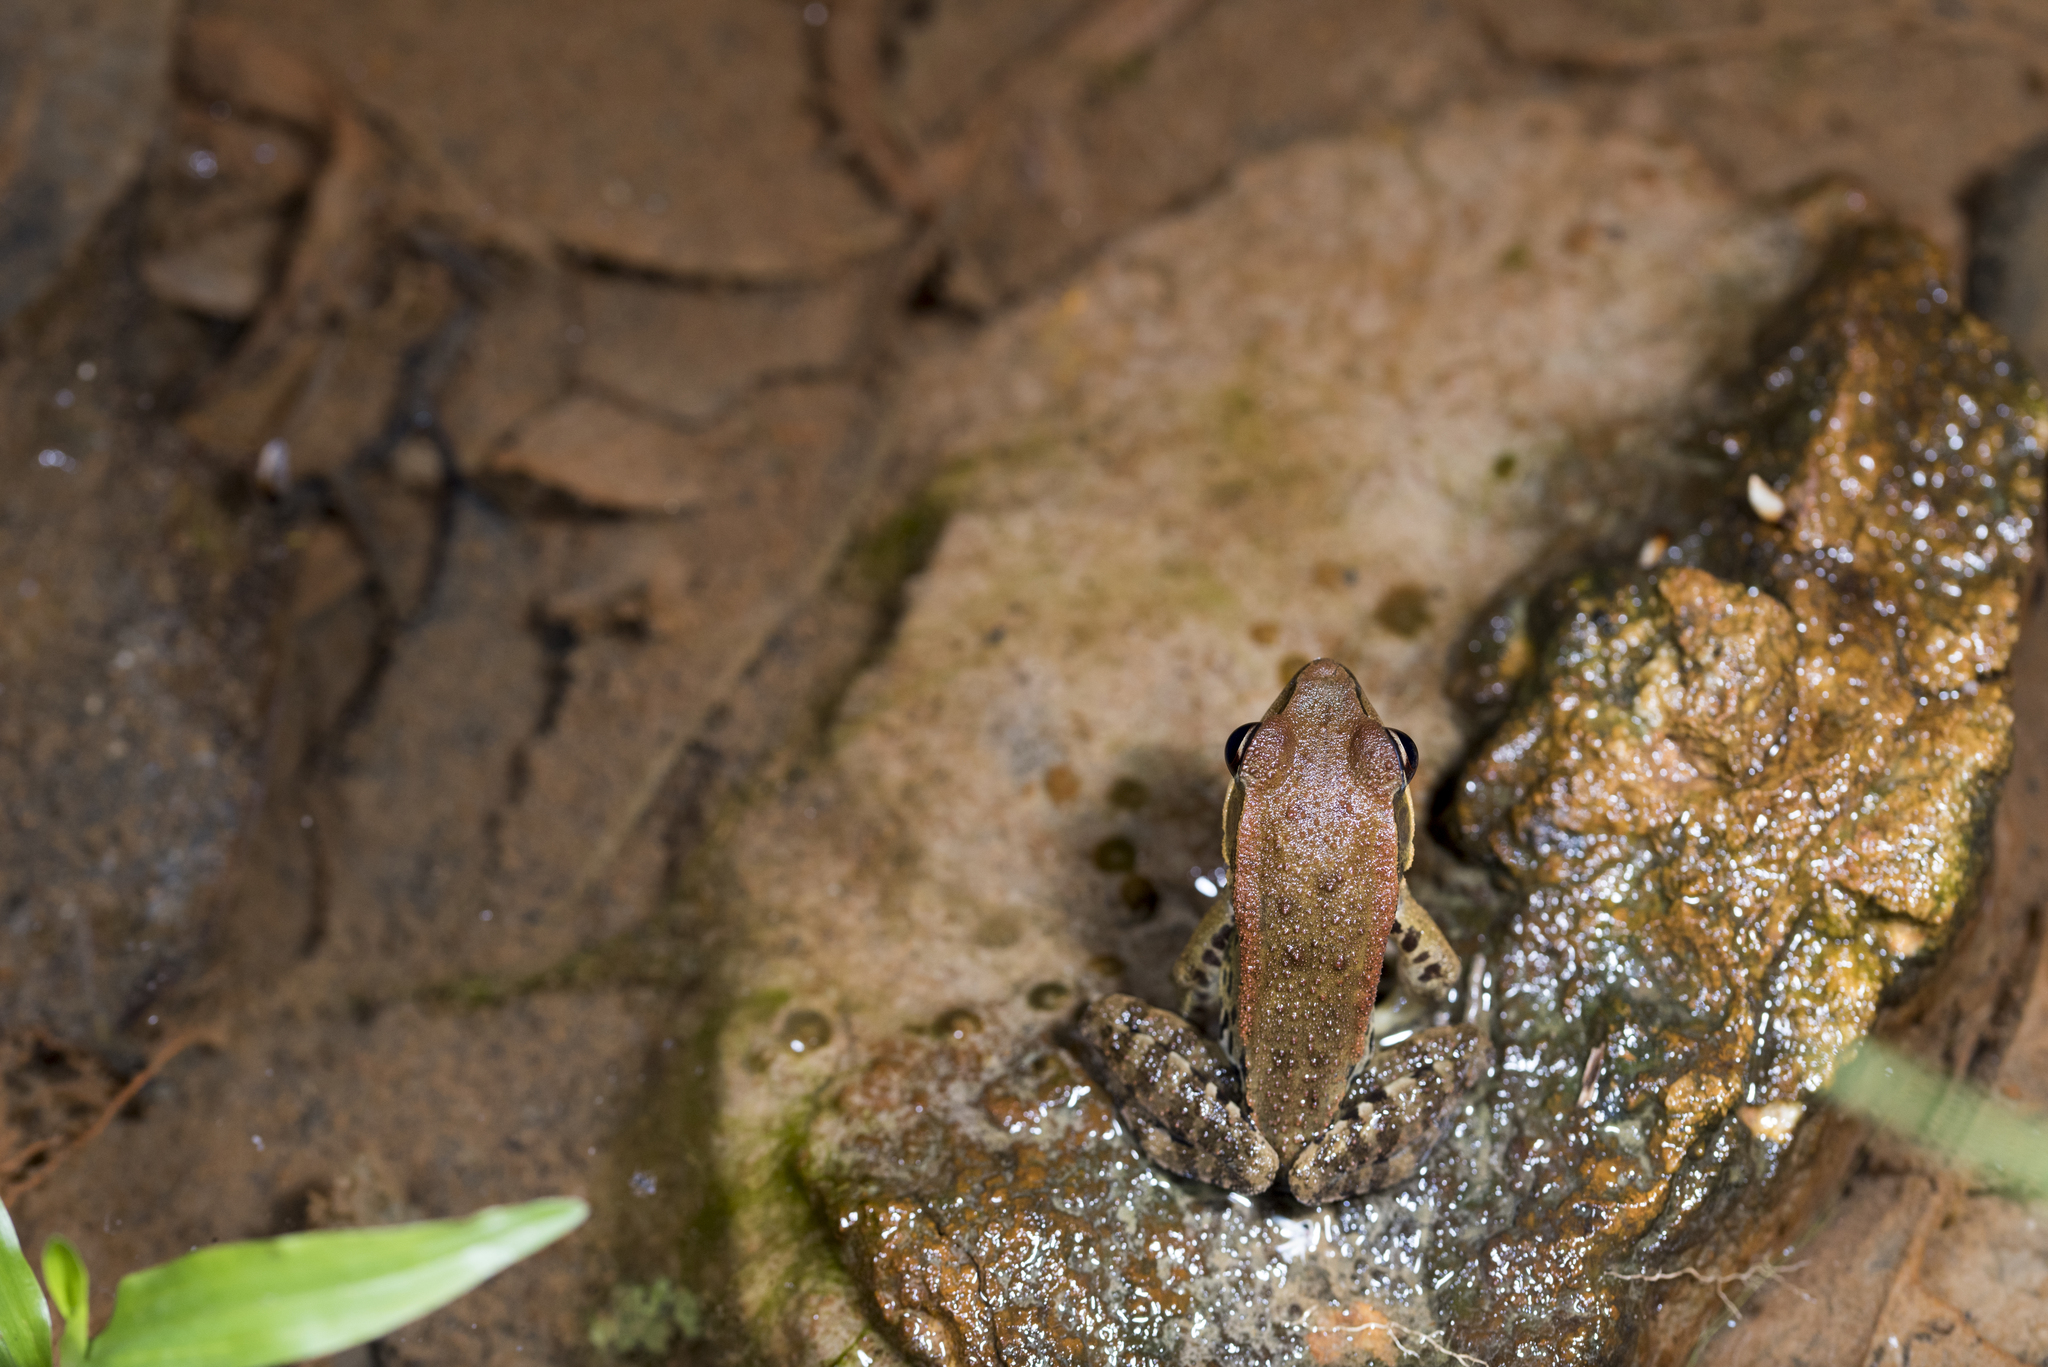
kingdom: Animalia
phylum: Chordata
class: Amphibia
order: Anura
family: Ranidae
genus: Hylarana
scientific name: Hylarana latouchii
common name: Broad-folded frog
